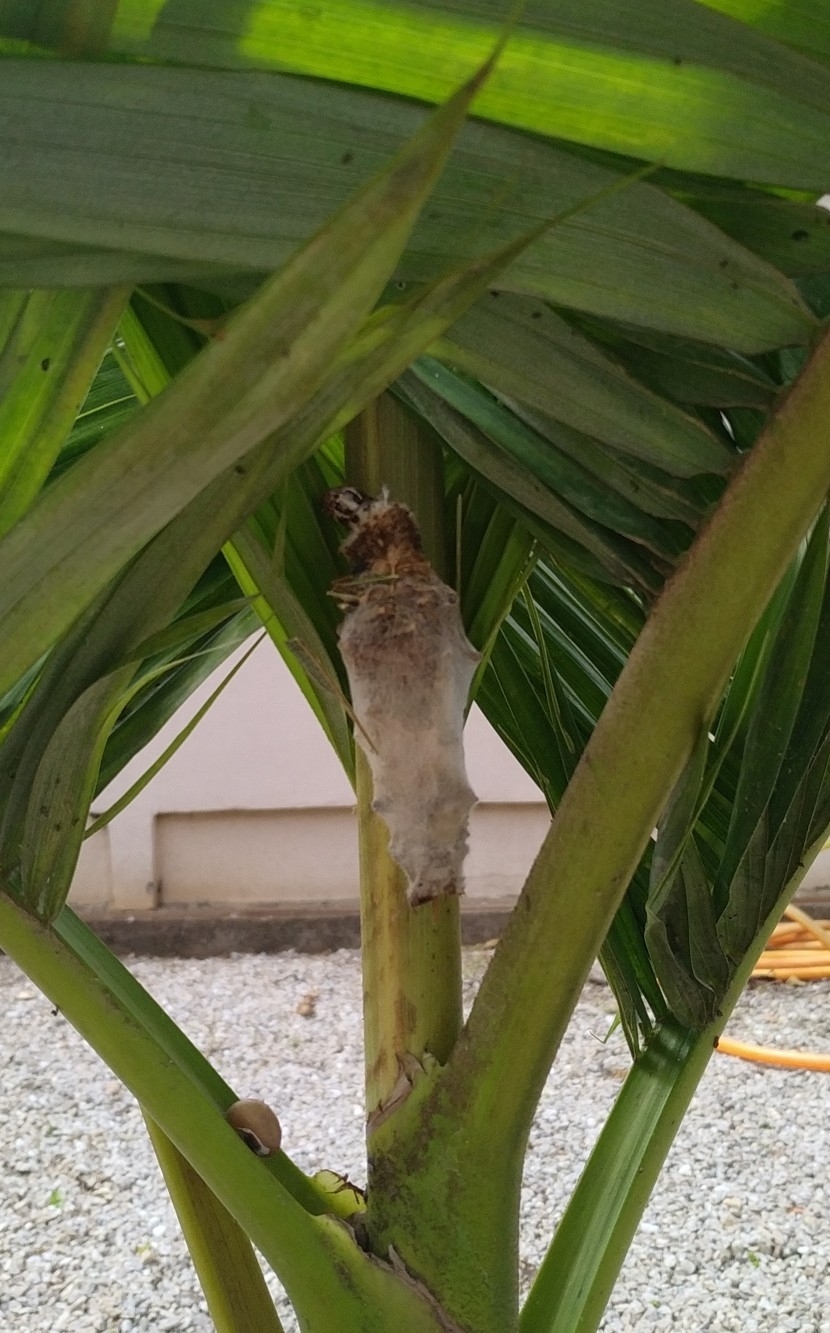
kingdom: Animalia
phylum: Arthropoda
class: Insecta
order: Lepidoptera
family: Psychidae
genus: Oiketicus
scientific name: Oiketicus kirbyi
